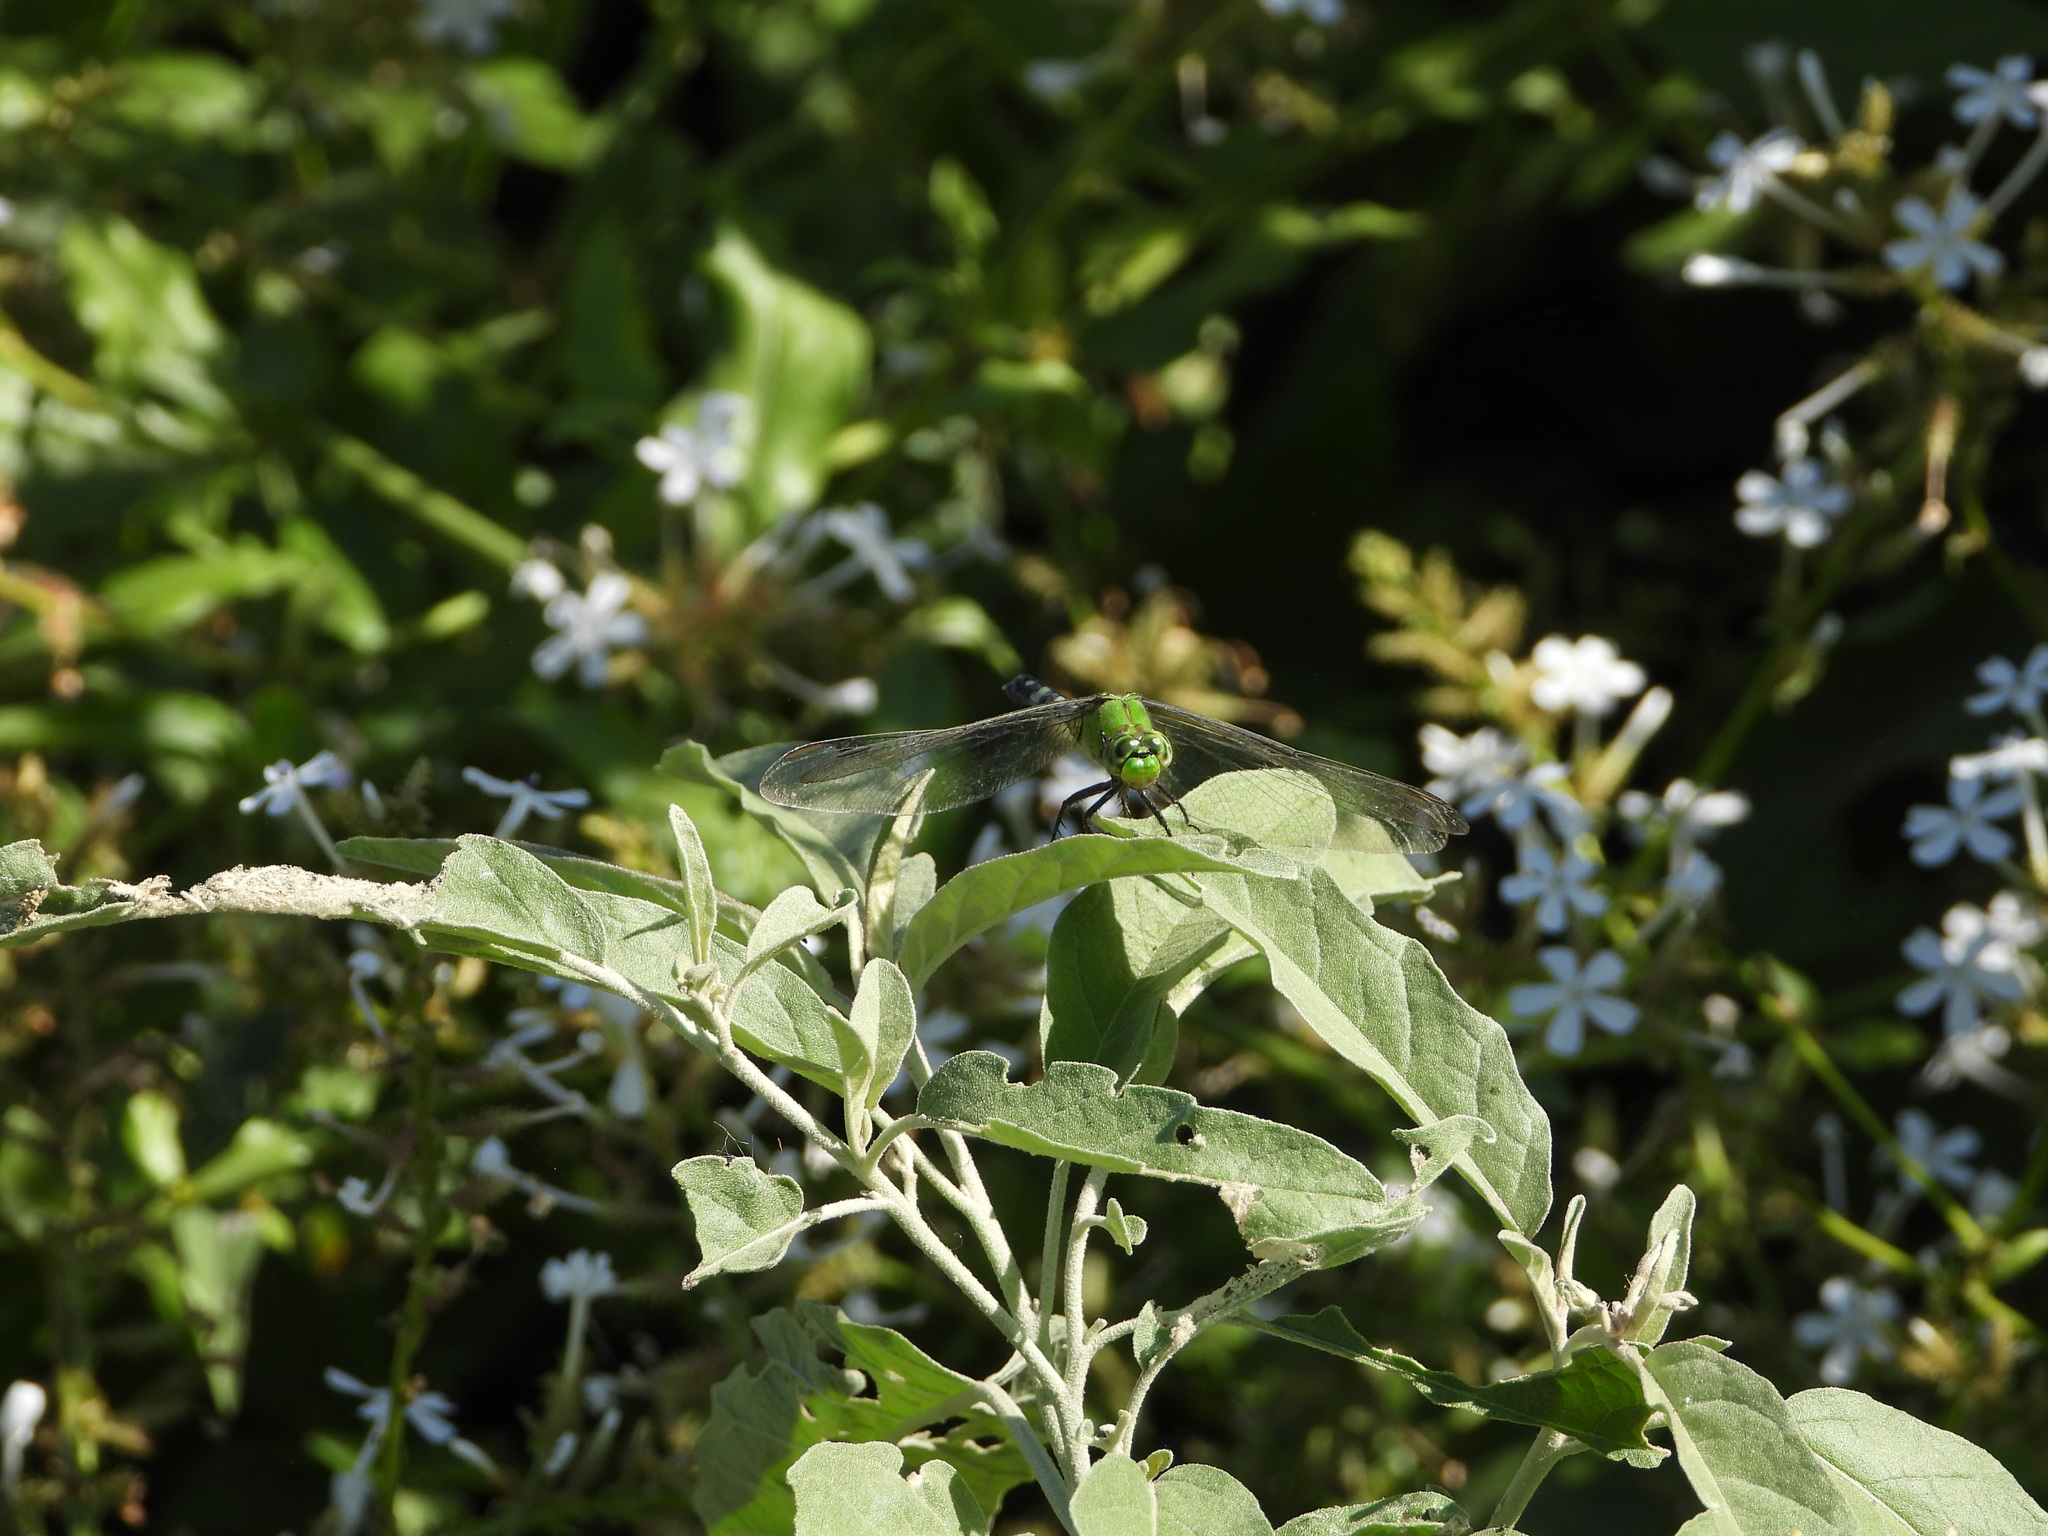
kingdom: Animalia
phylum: Arthropoda
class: Insecta
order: Odonata
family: Libellulidae
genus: Erythemis
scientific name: Erythemis simplicicollis
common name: Eastern pondhawk
